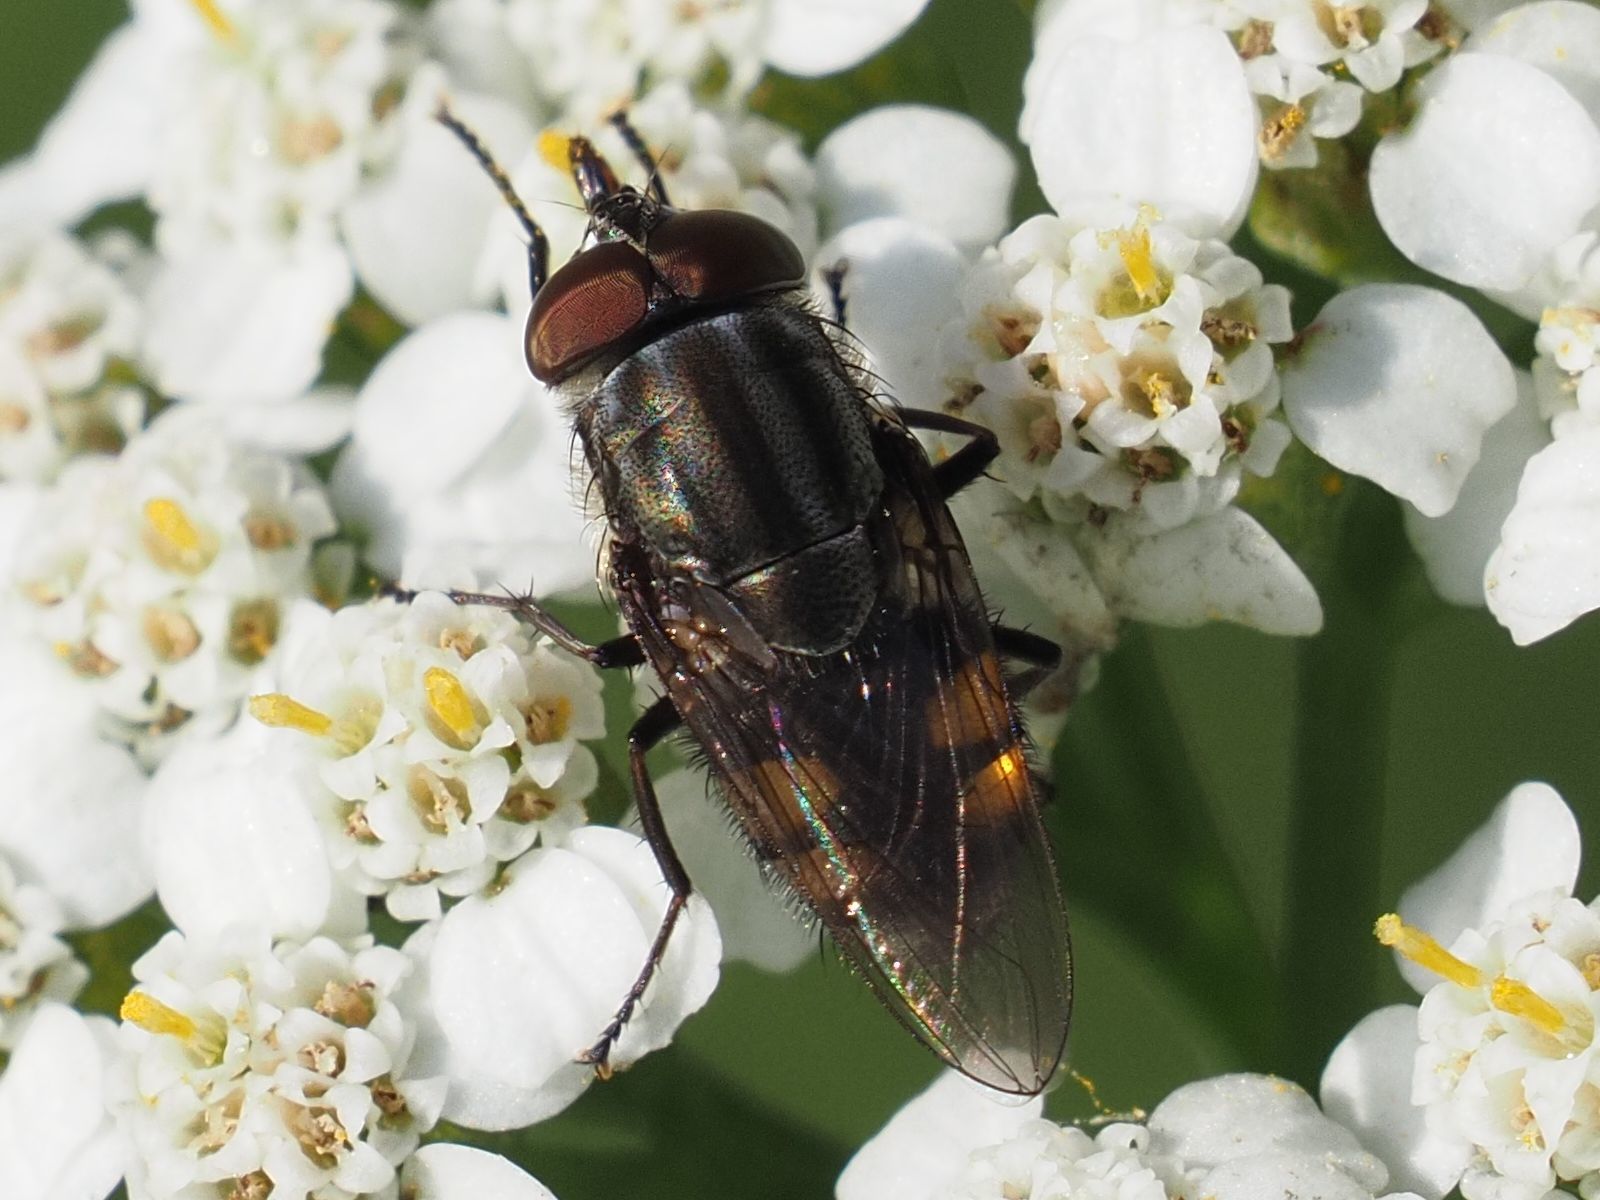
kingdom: Animalia
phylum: Arthropoda
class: Insecta
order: Diptera
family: Calliphoridae
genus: Stomorhina
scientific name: Stomorhina lunata
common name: Locust blowfly
